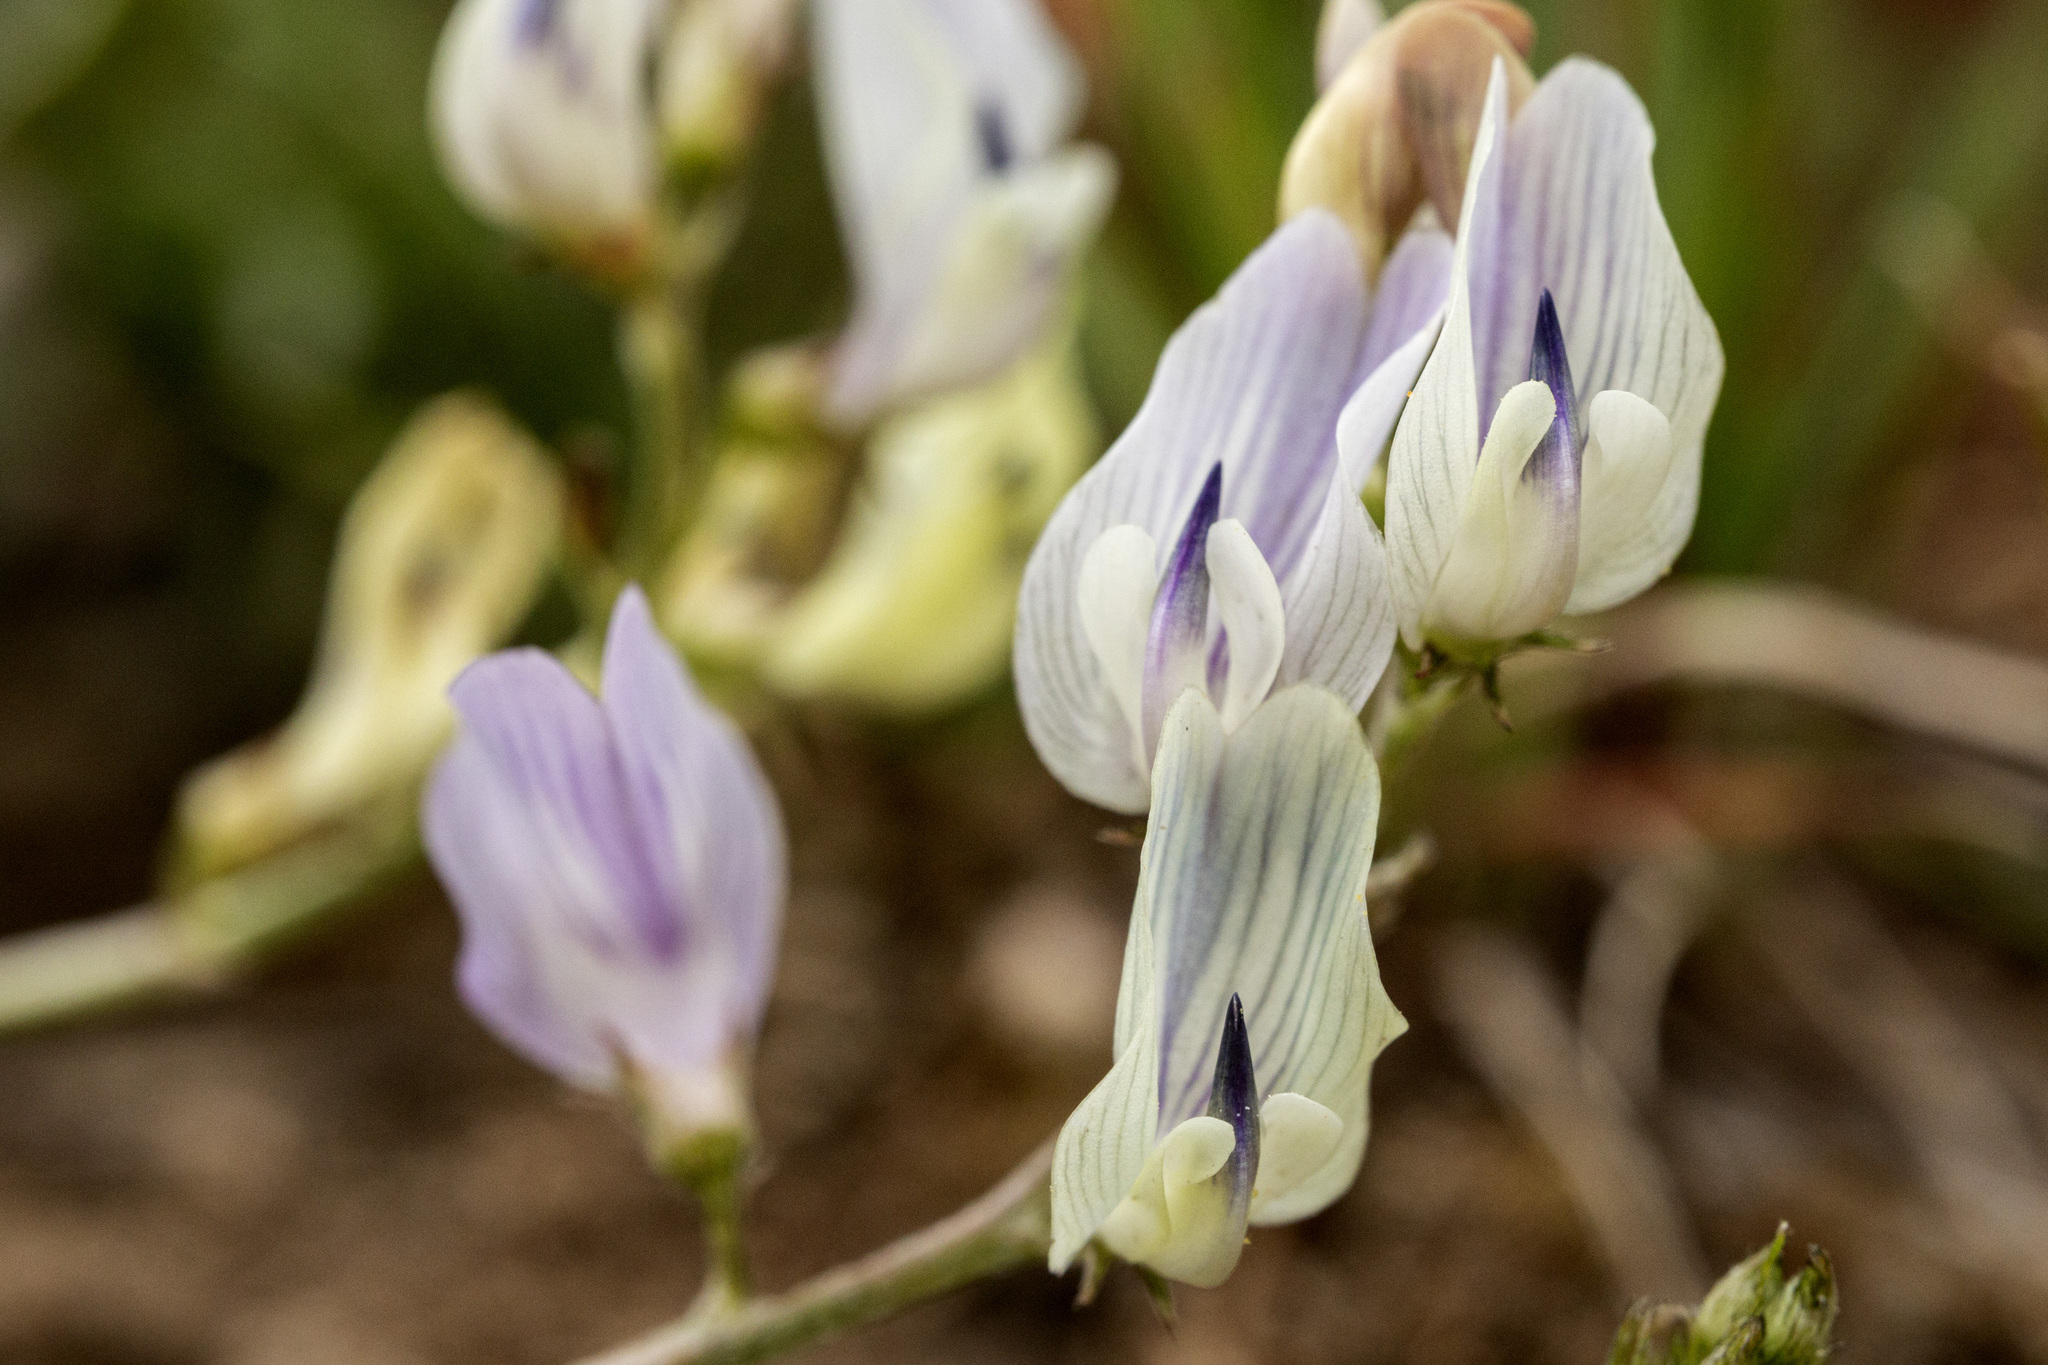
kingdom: Plantae
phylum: Tracheophyta
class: Magnoliopsida
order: Fabales
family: Fabaceae
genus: Astragalus
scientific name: Astragalus miser
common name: Timber milkvetch
